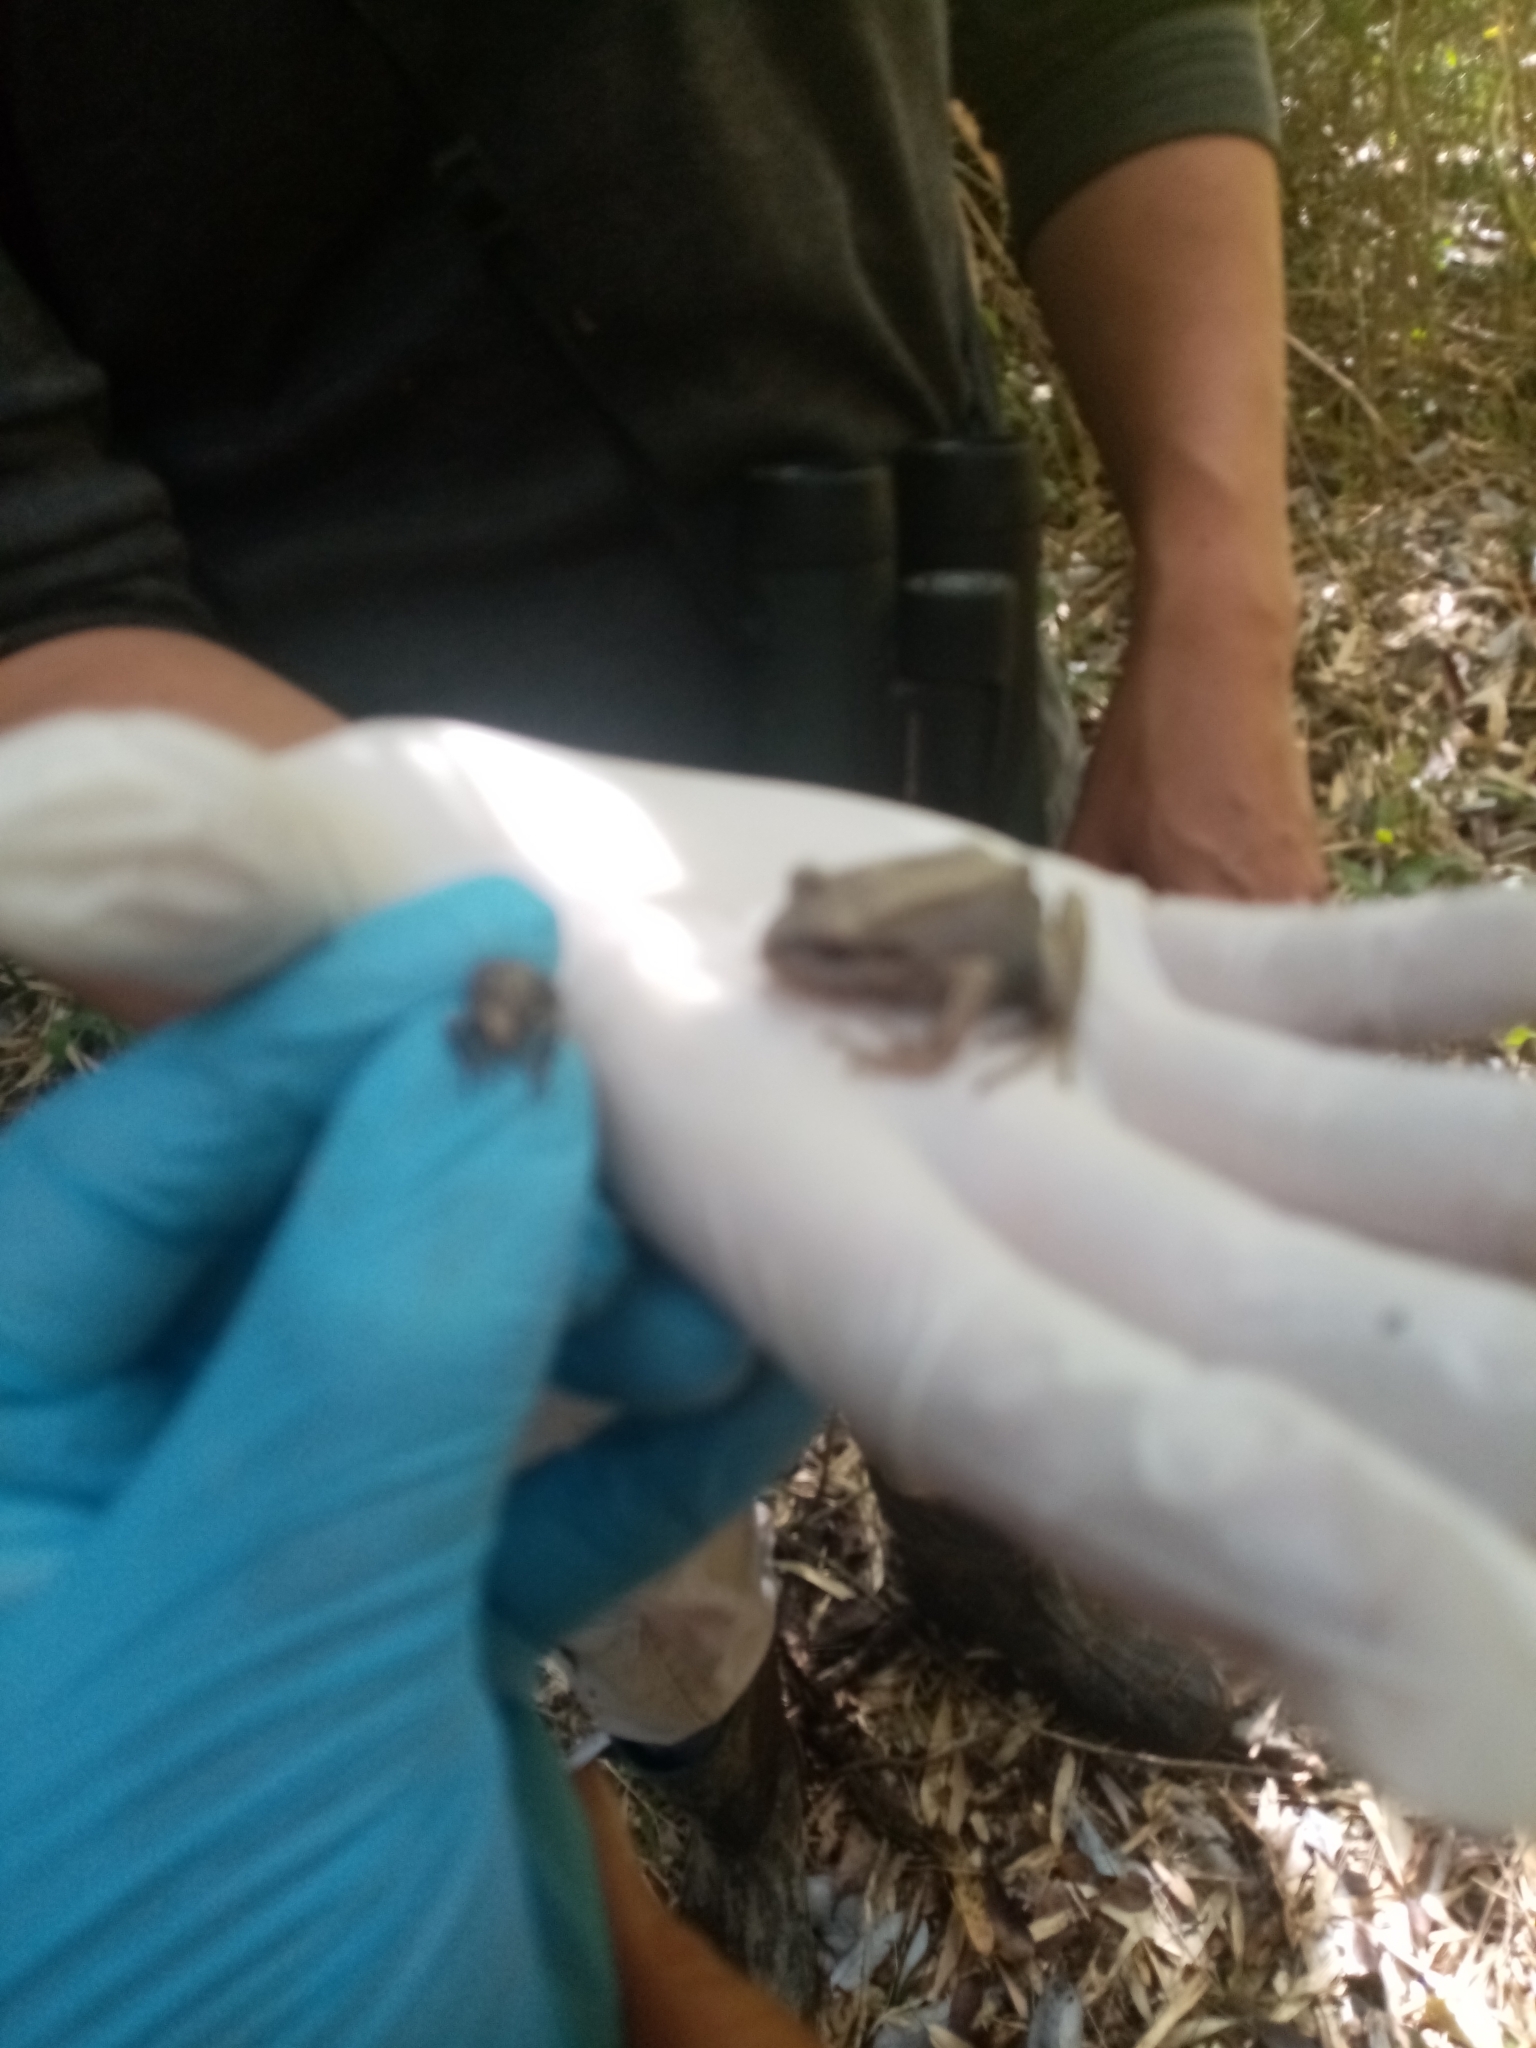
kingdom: Animalia
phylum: Chordata
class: Amphibia
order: Anura
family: Batrachylidae
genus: Batrachyla
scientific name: Batrachyla taeniata
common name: Banded wood frog
